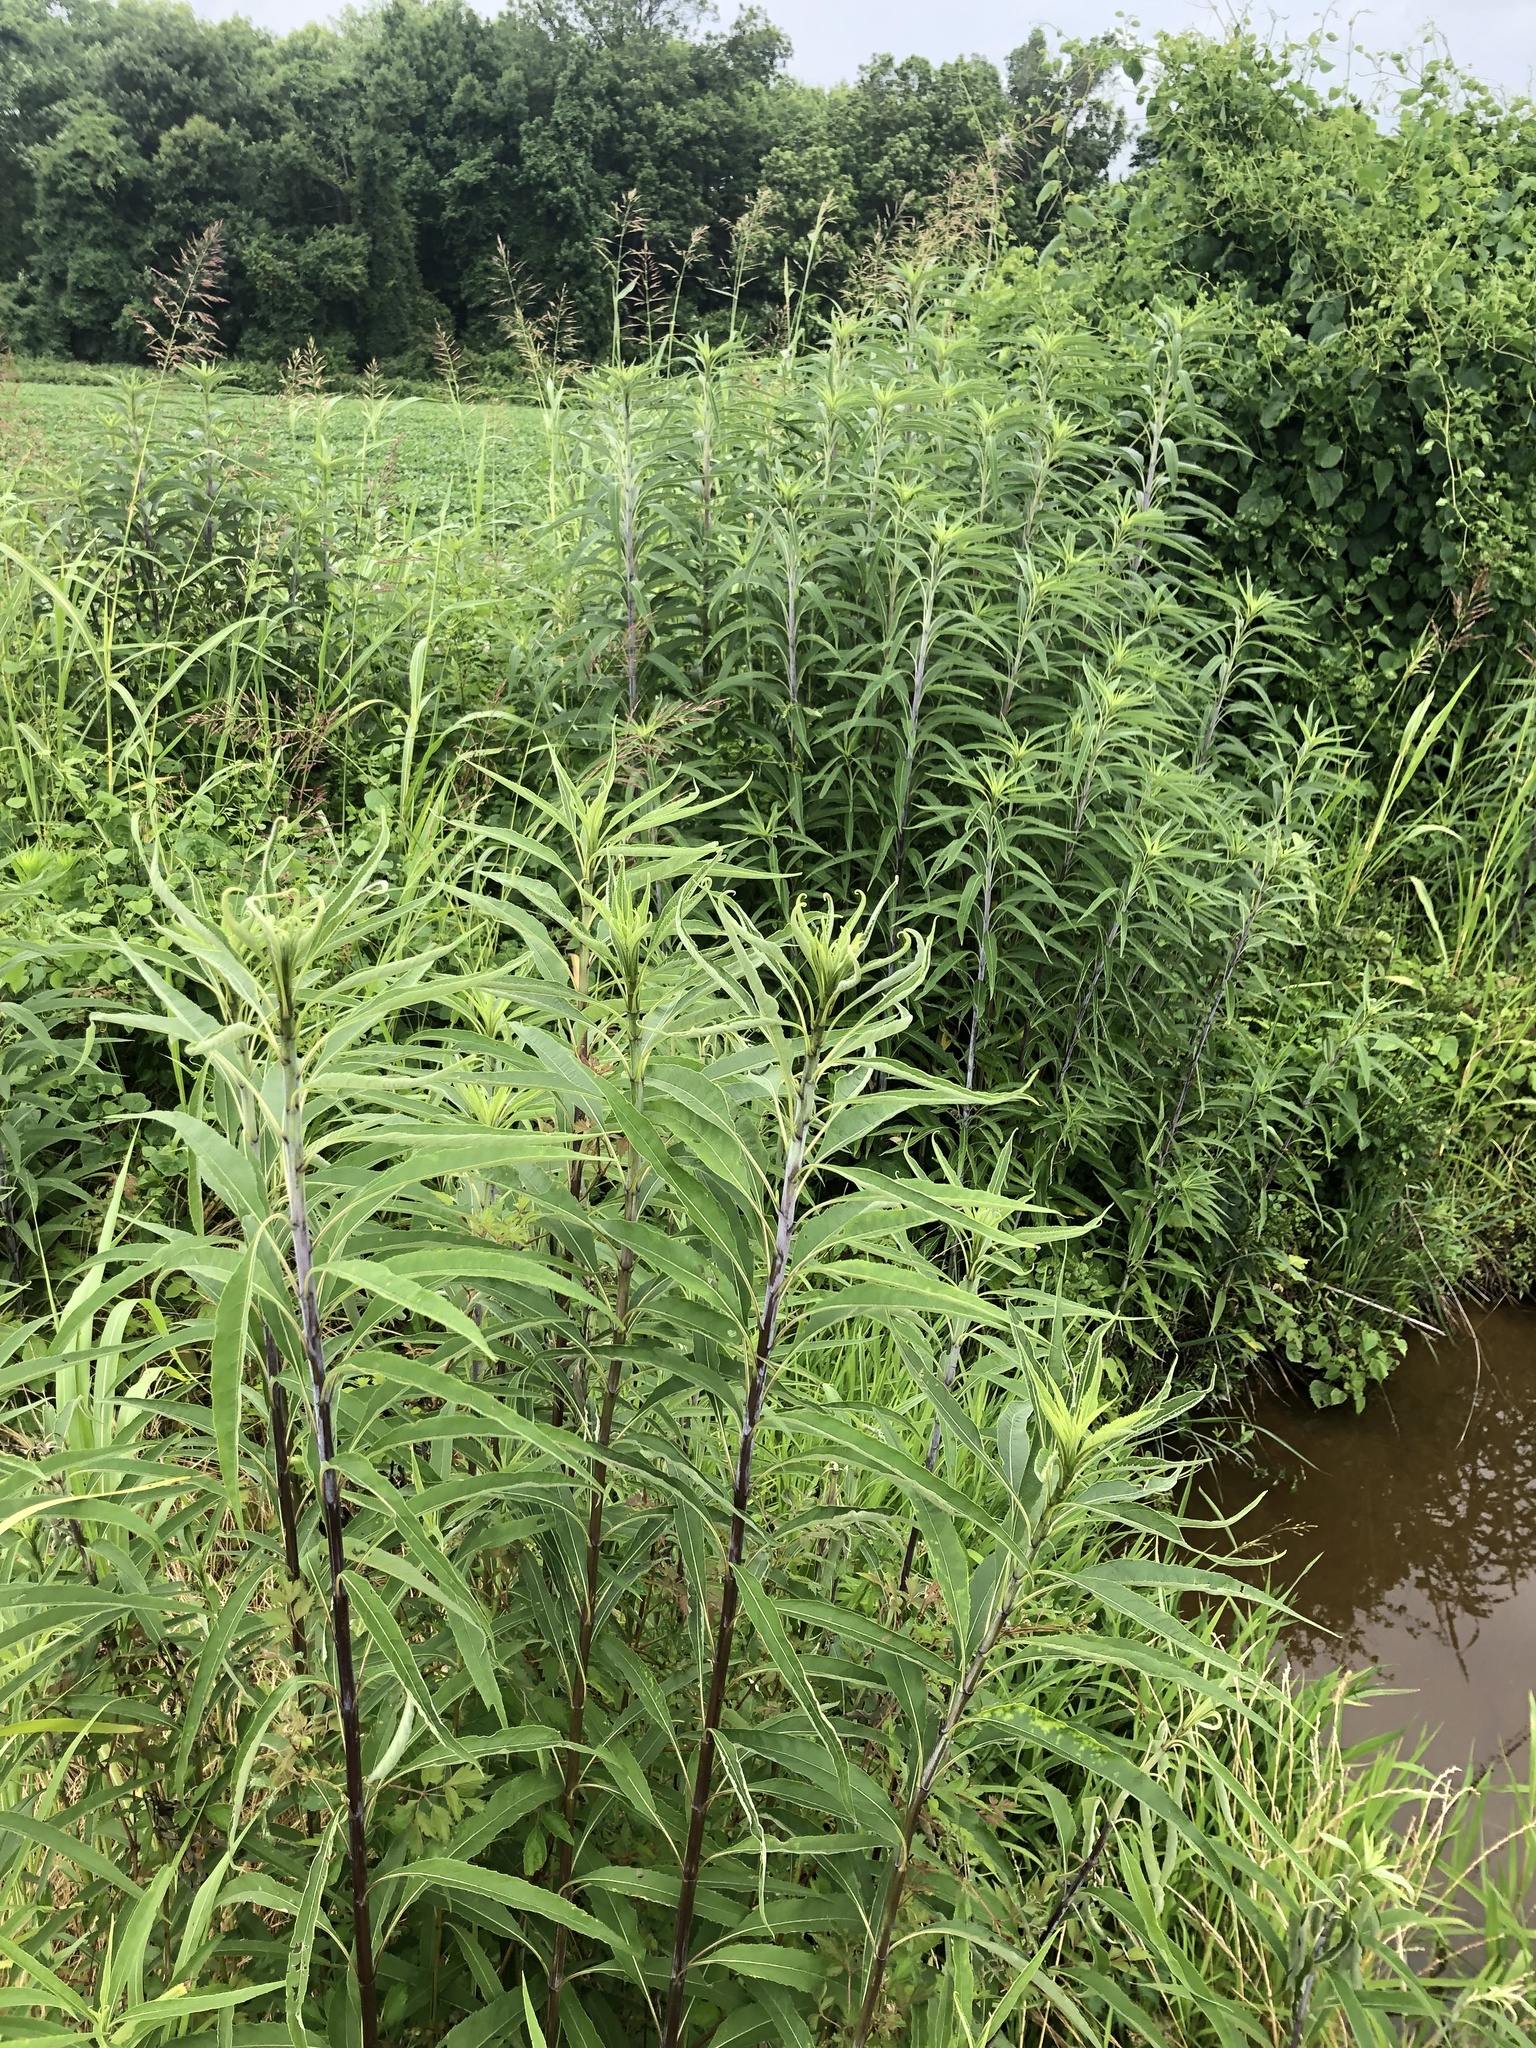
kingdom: Plantae
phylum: Tracheophyta
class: Magnoliopsida
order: Asterales
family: Asteraceae
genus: Helianthus
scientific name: Helianthus verticillatus
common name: Whorled sunflower
